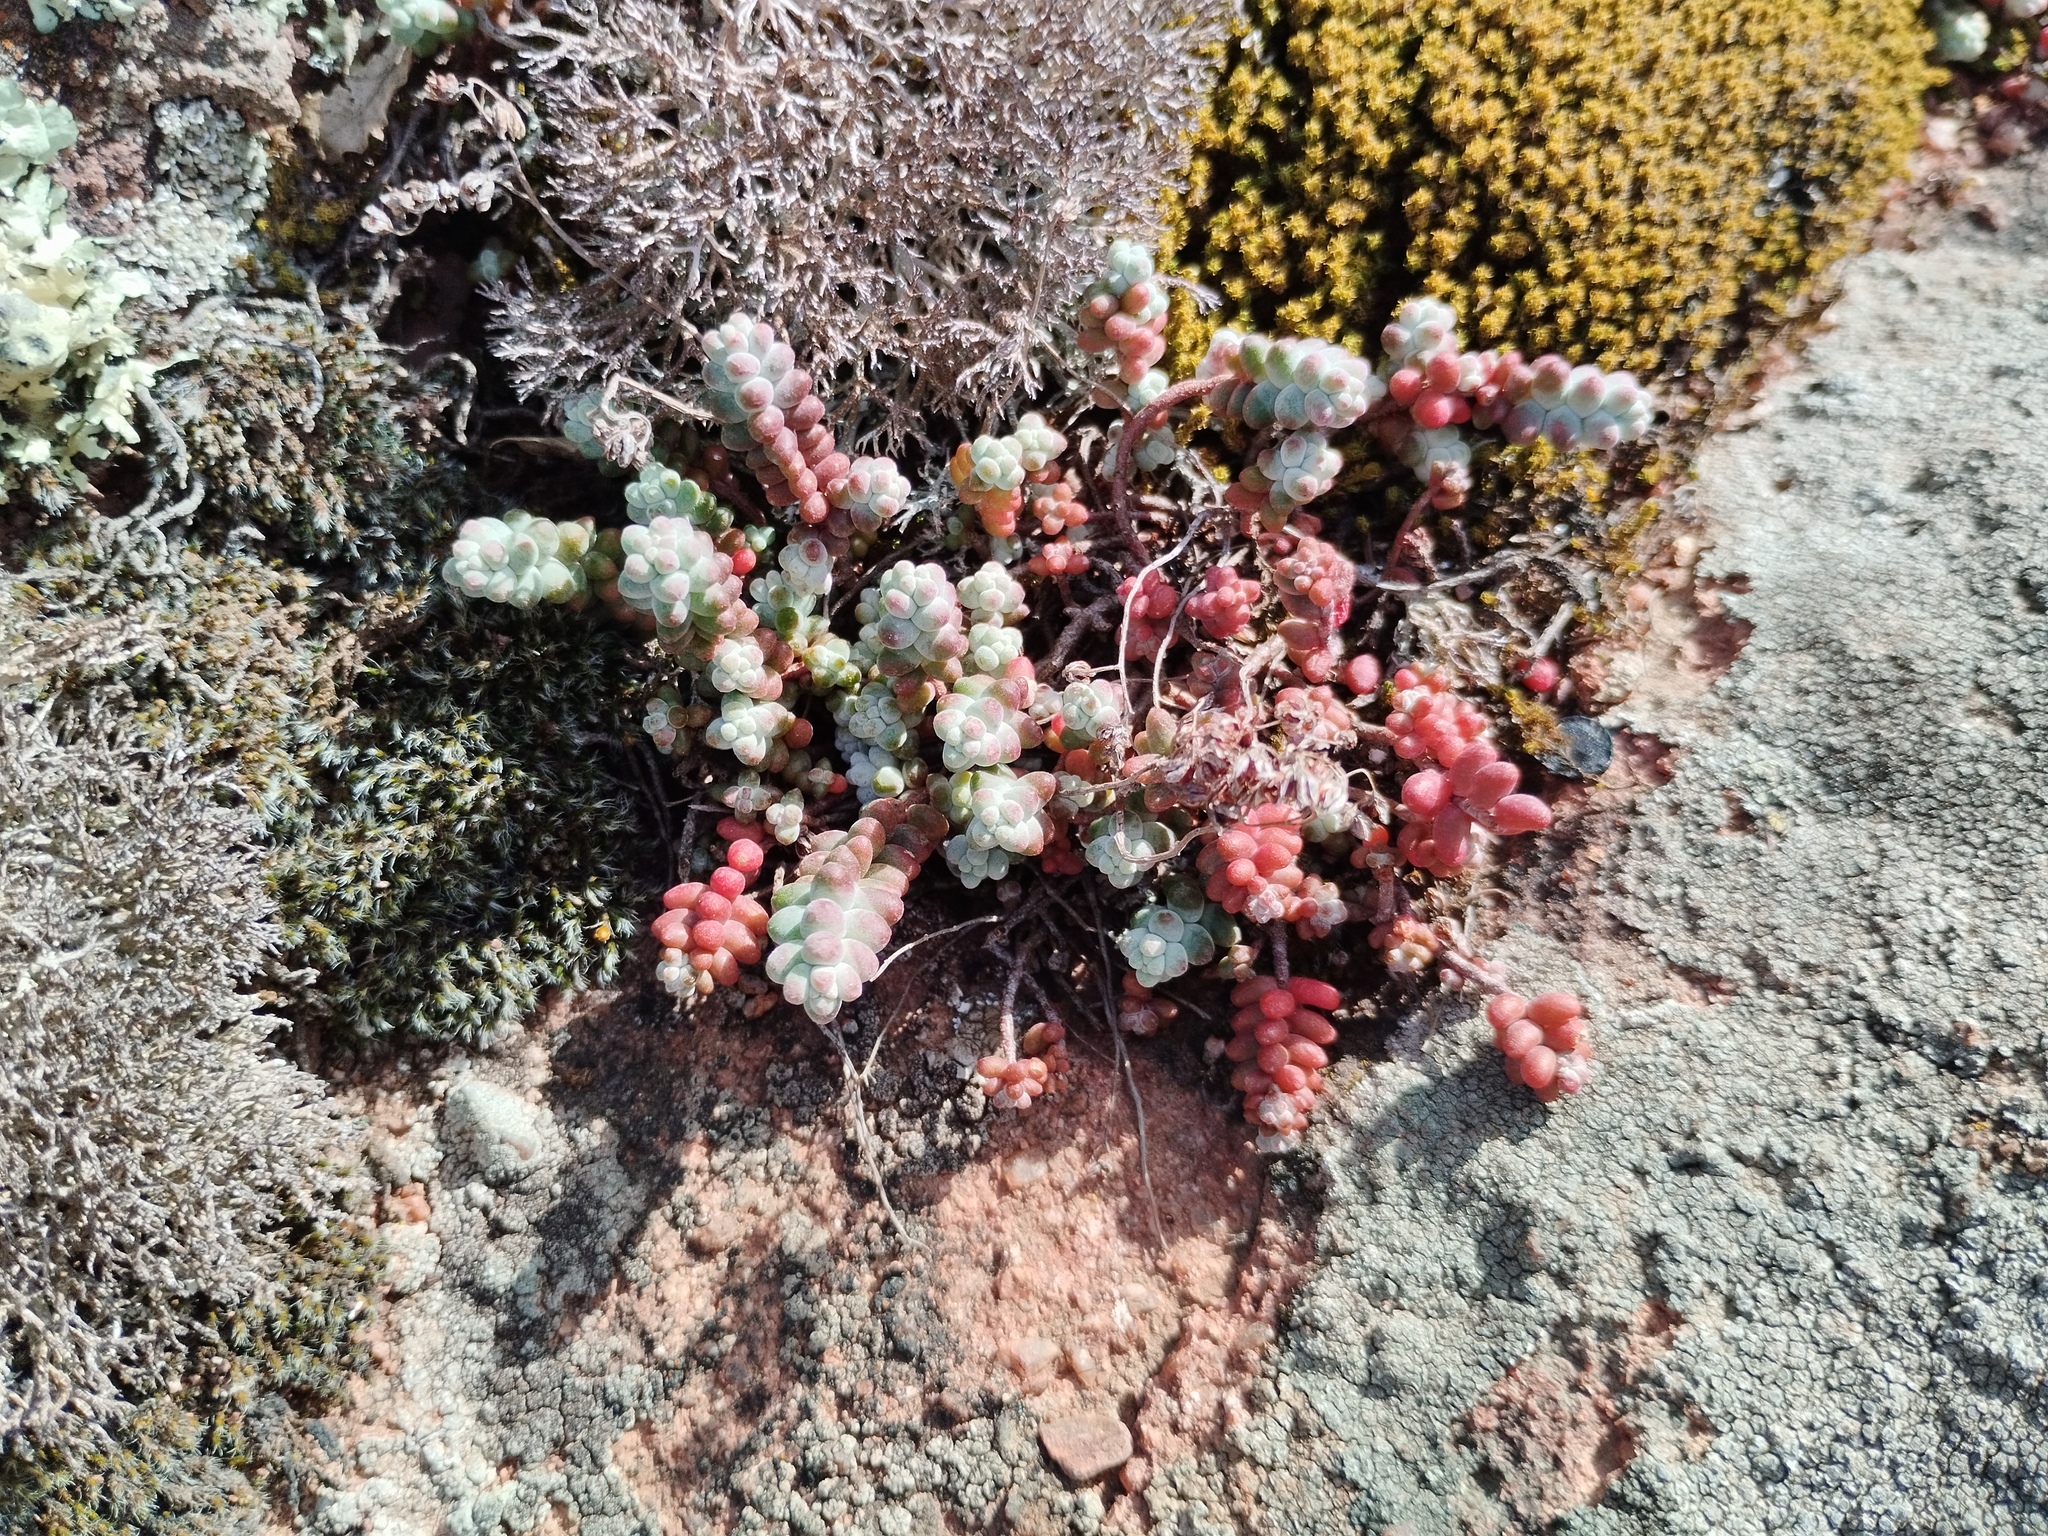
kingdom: Plantae
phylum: Tracheophyta
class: Magnoliopsida
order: Saxifragales
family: Crassulaceae
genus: Sedum
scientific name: Sedum brevifolium
